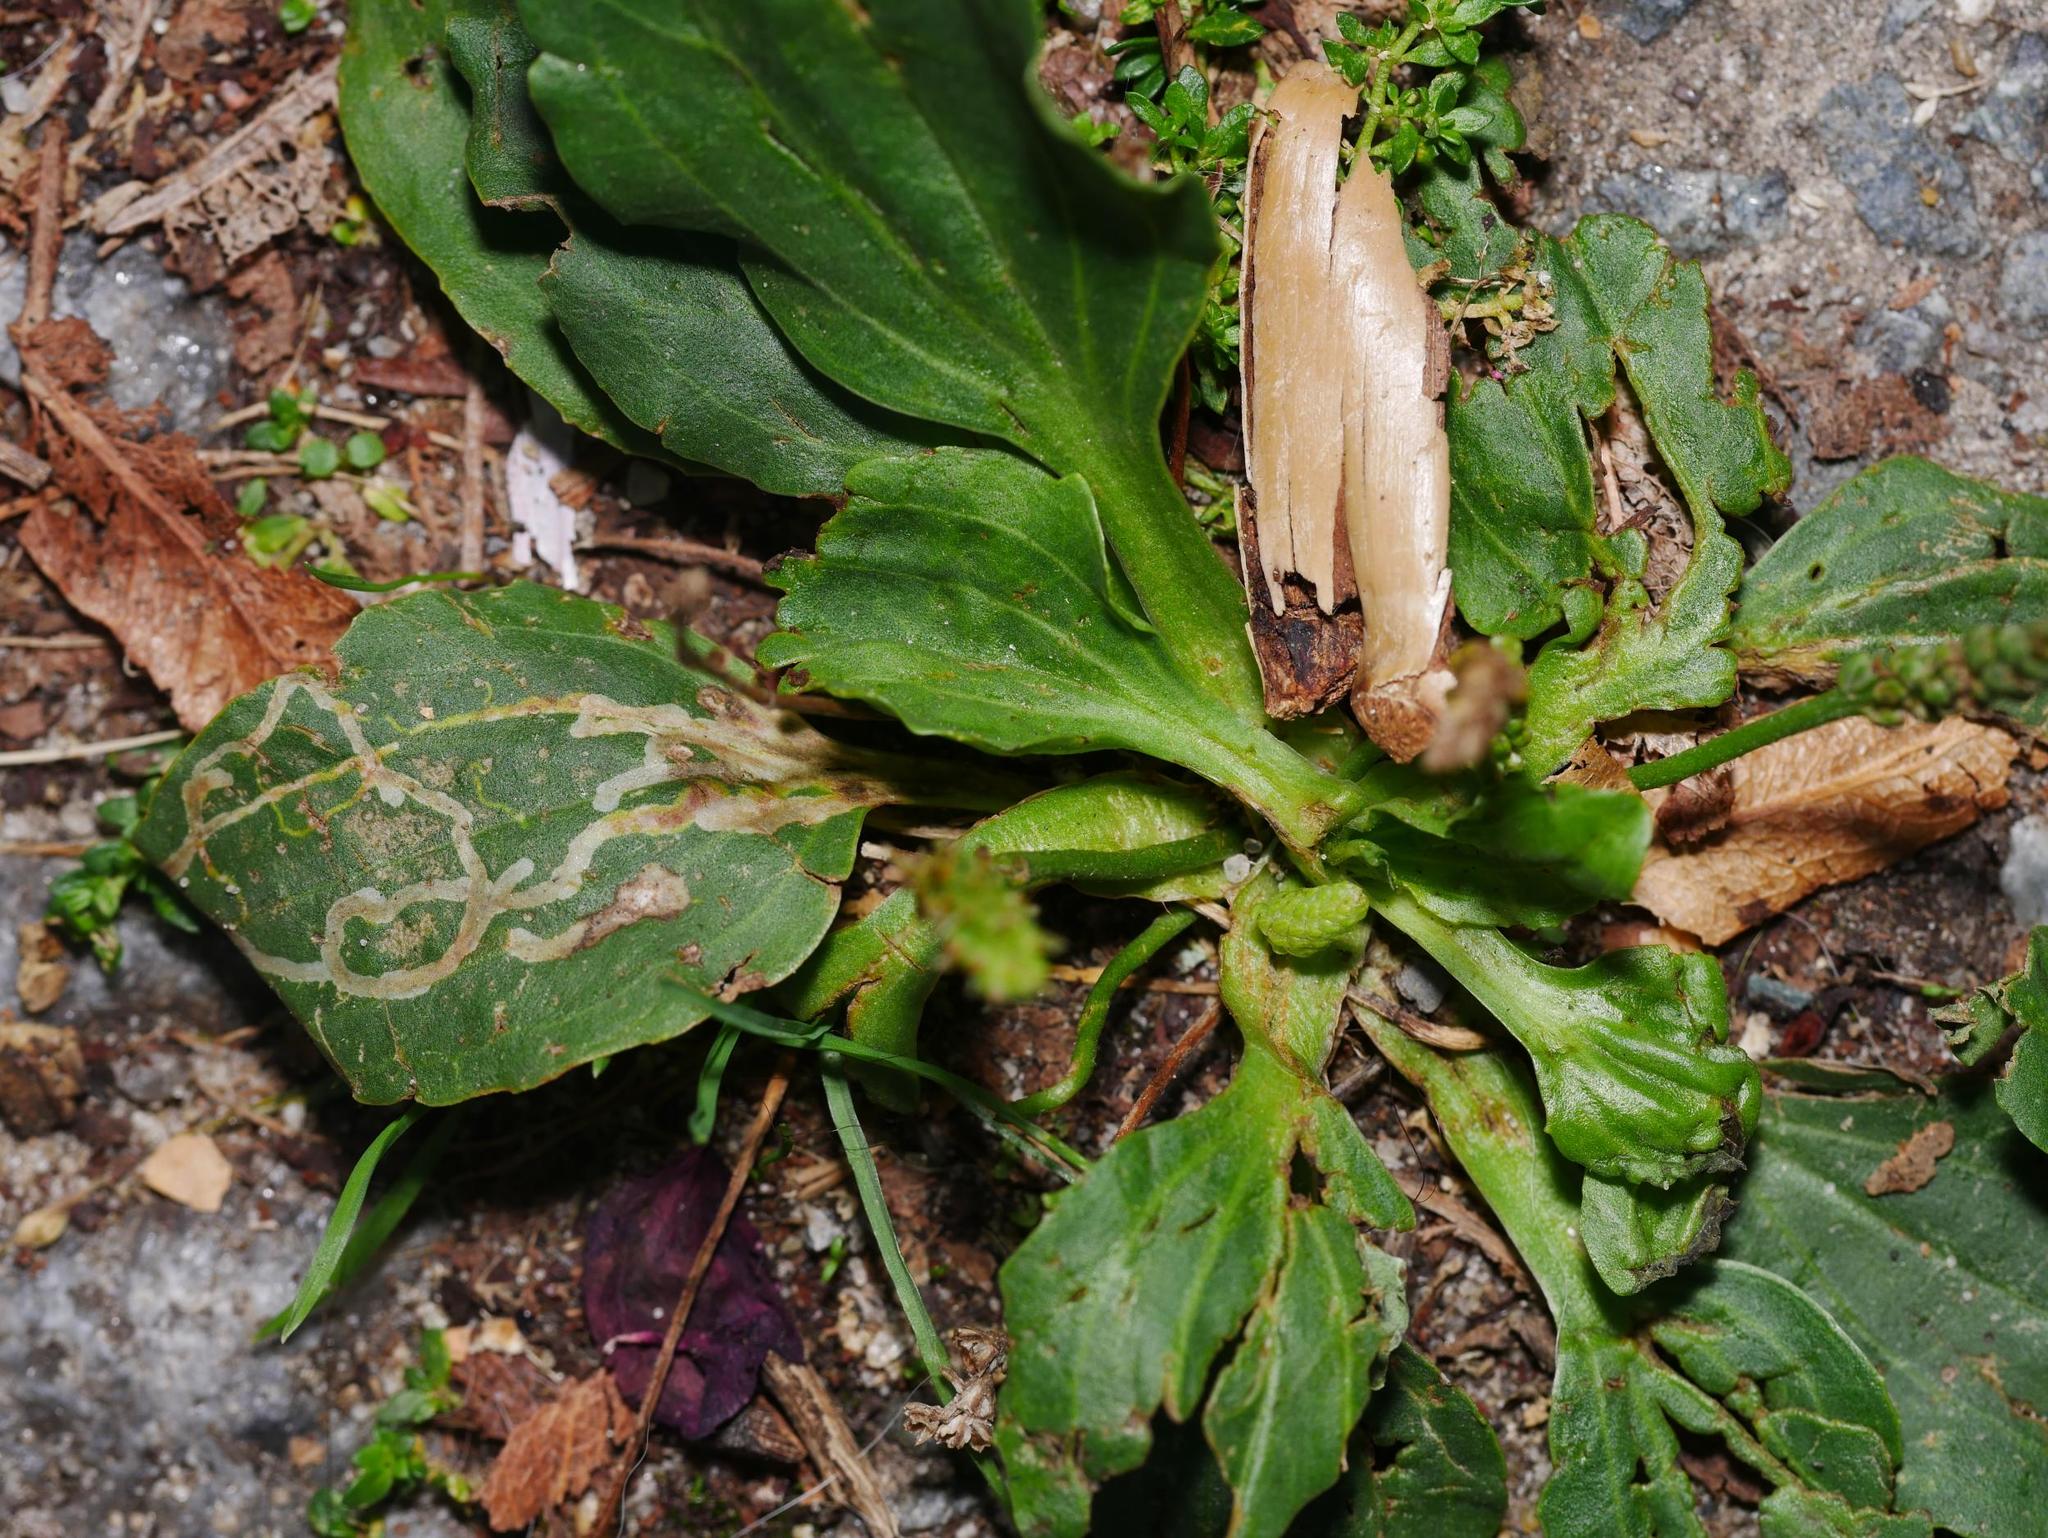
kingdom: Plantae
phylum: Tracheophyta
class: Magnoliopsida
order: Lamiales
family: Plantaginaceae
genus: Plantago
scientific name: Plantago major
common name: Common plantain
